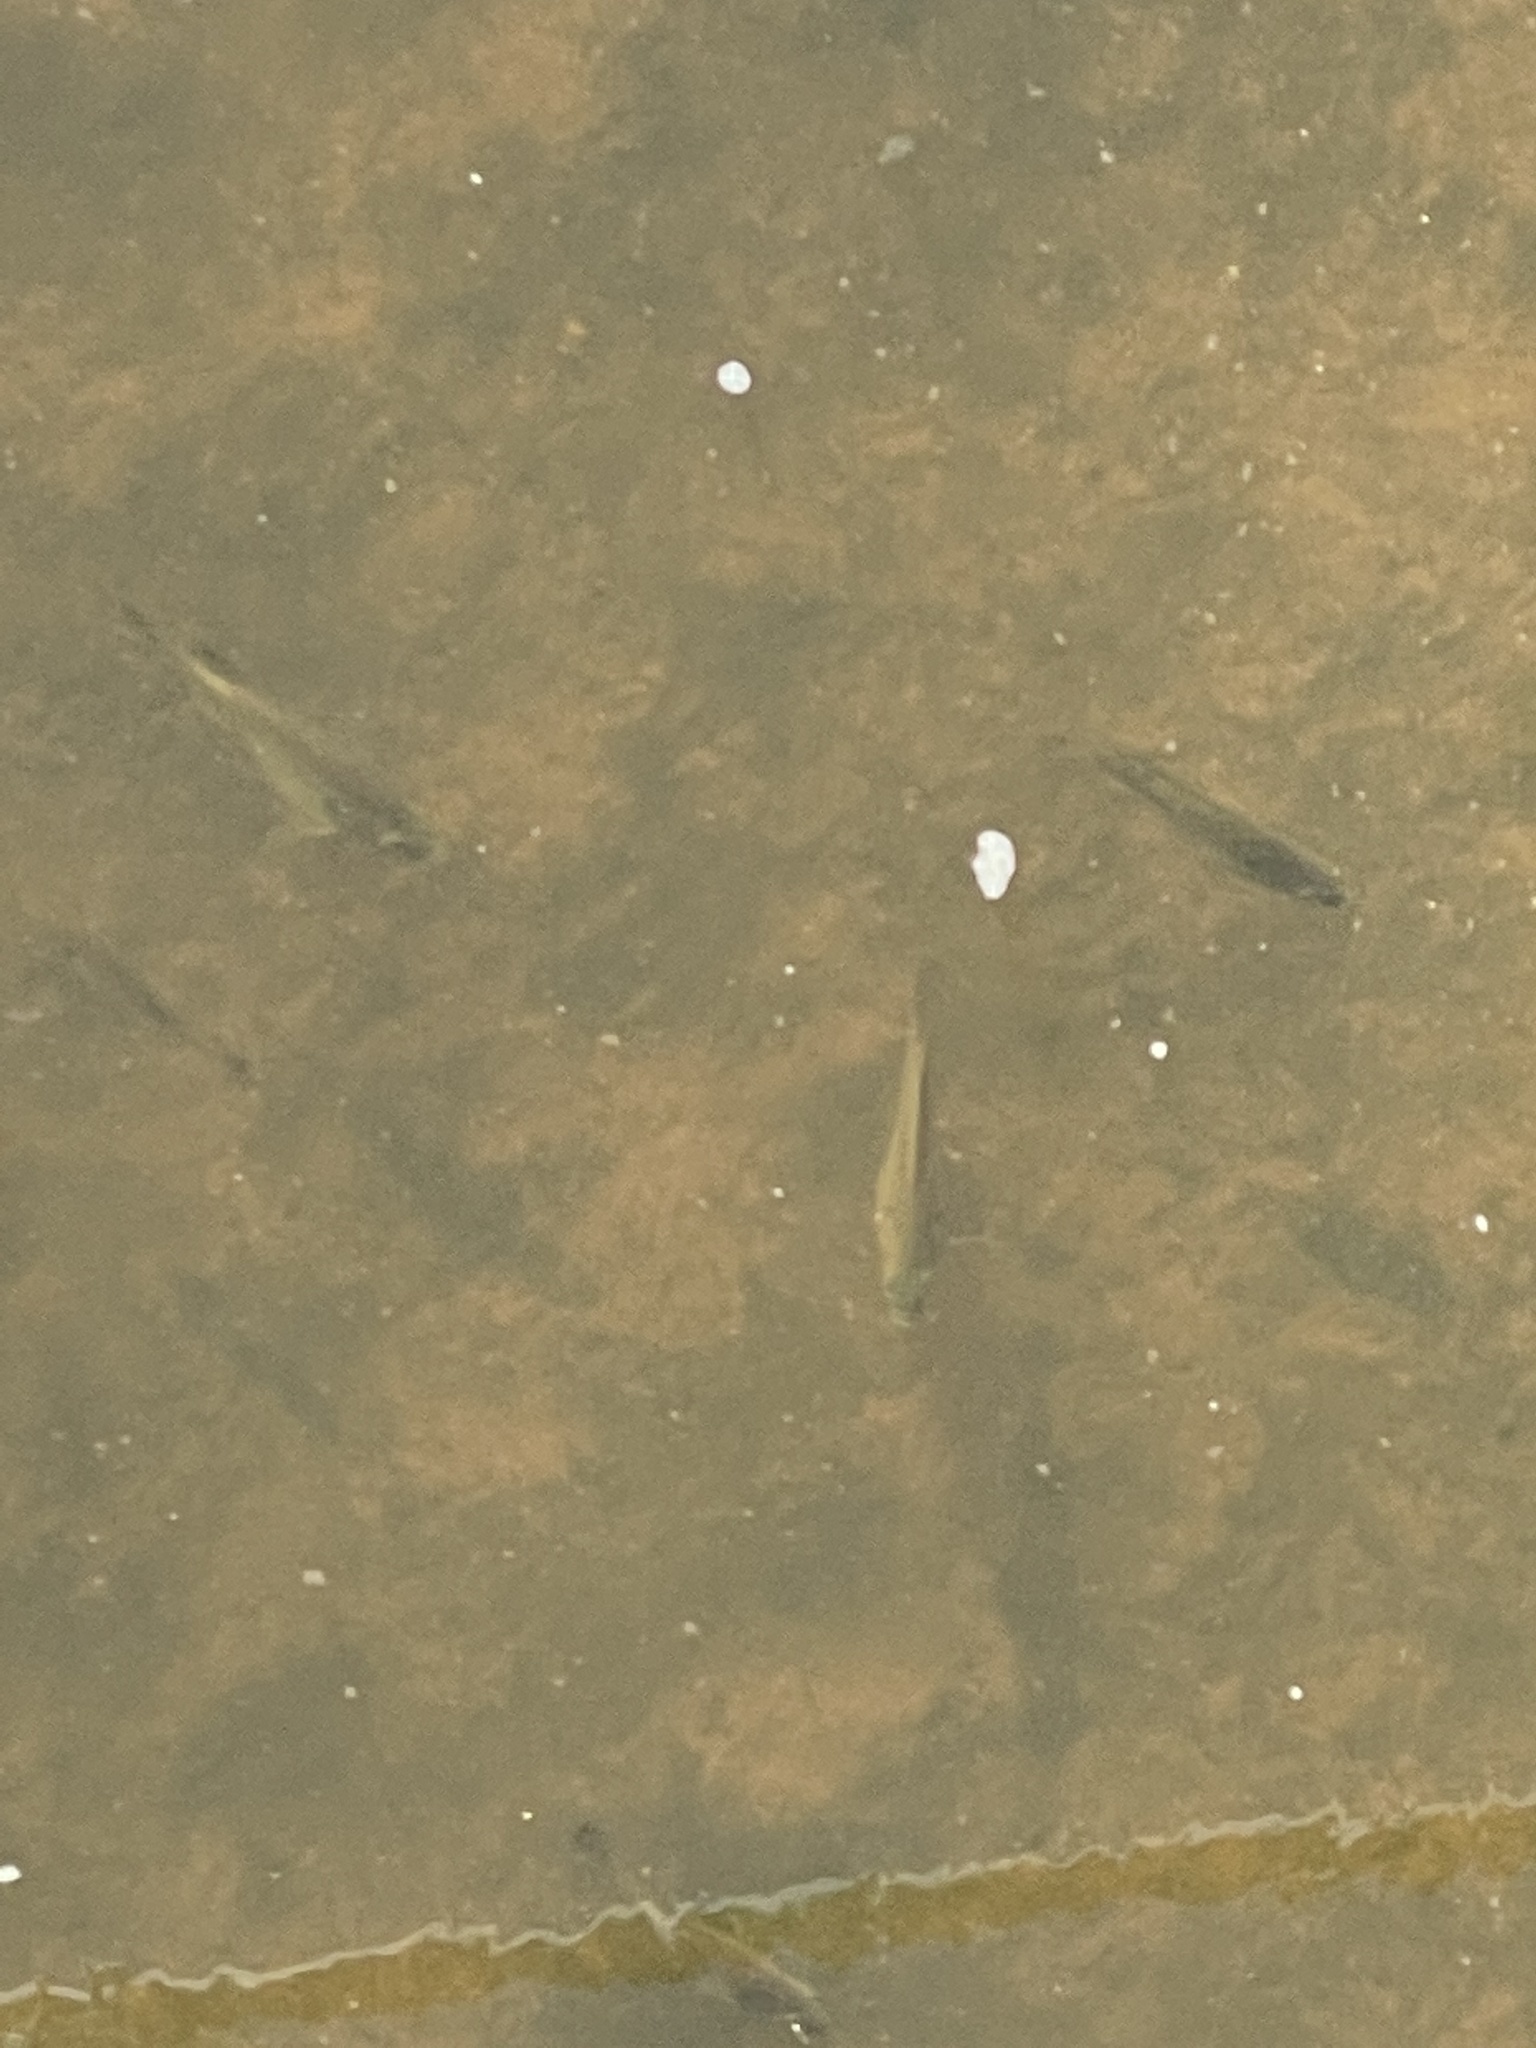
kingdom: Animalia
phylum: Chordata
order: Perciformes
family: Centrarchidae
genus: Lepomis
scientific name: Lepomis macrochirus
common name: Bluegill
